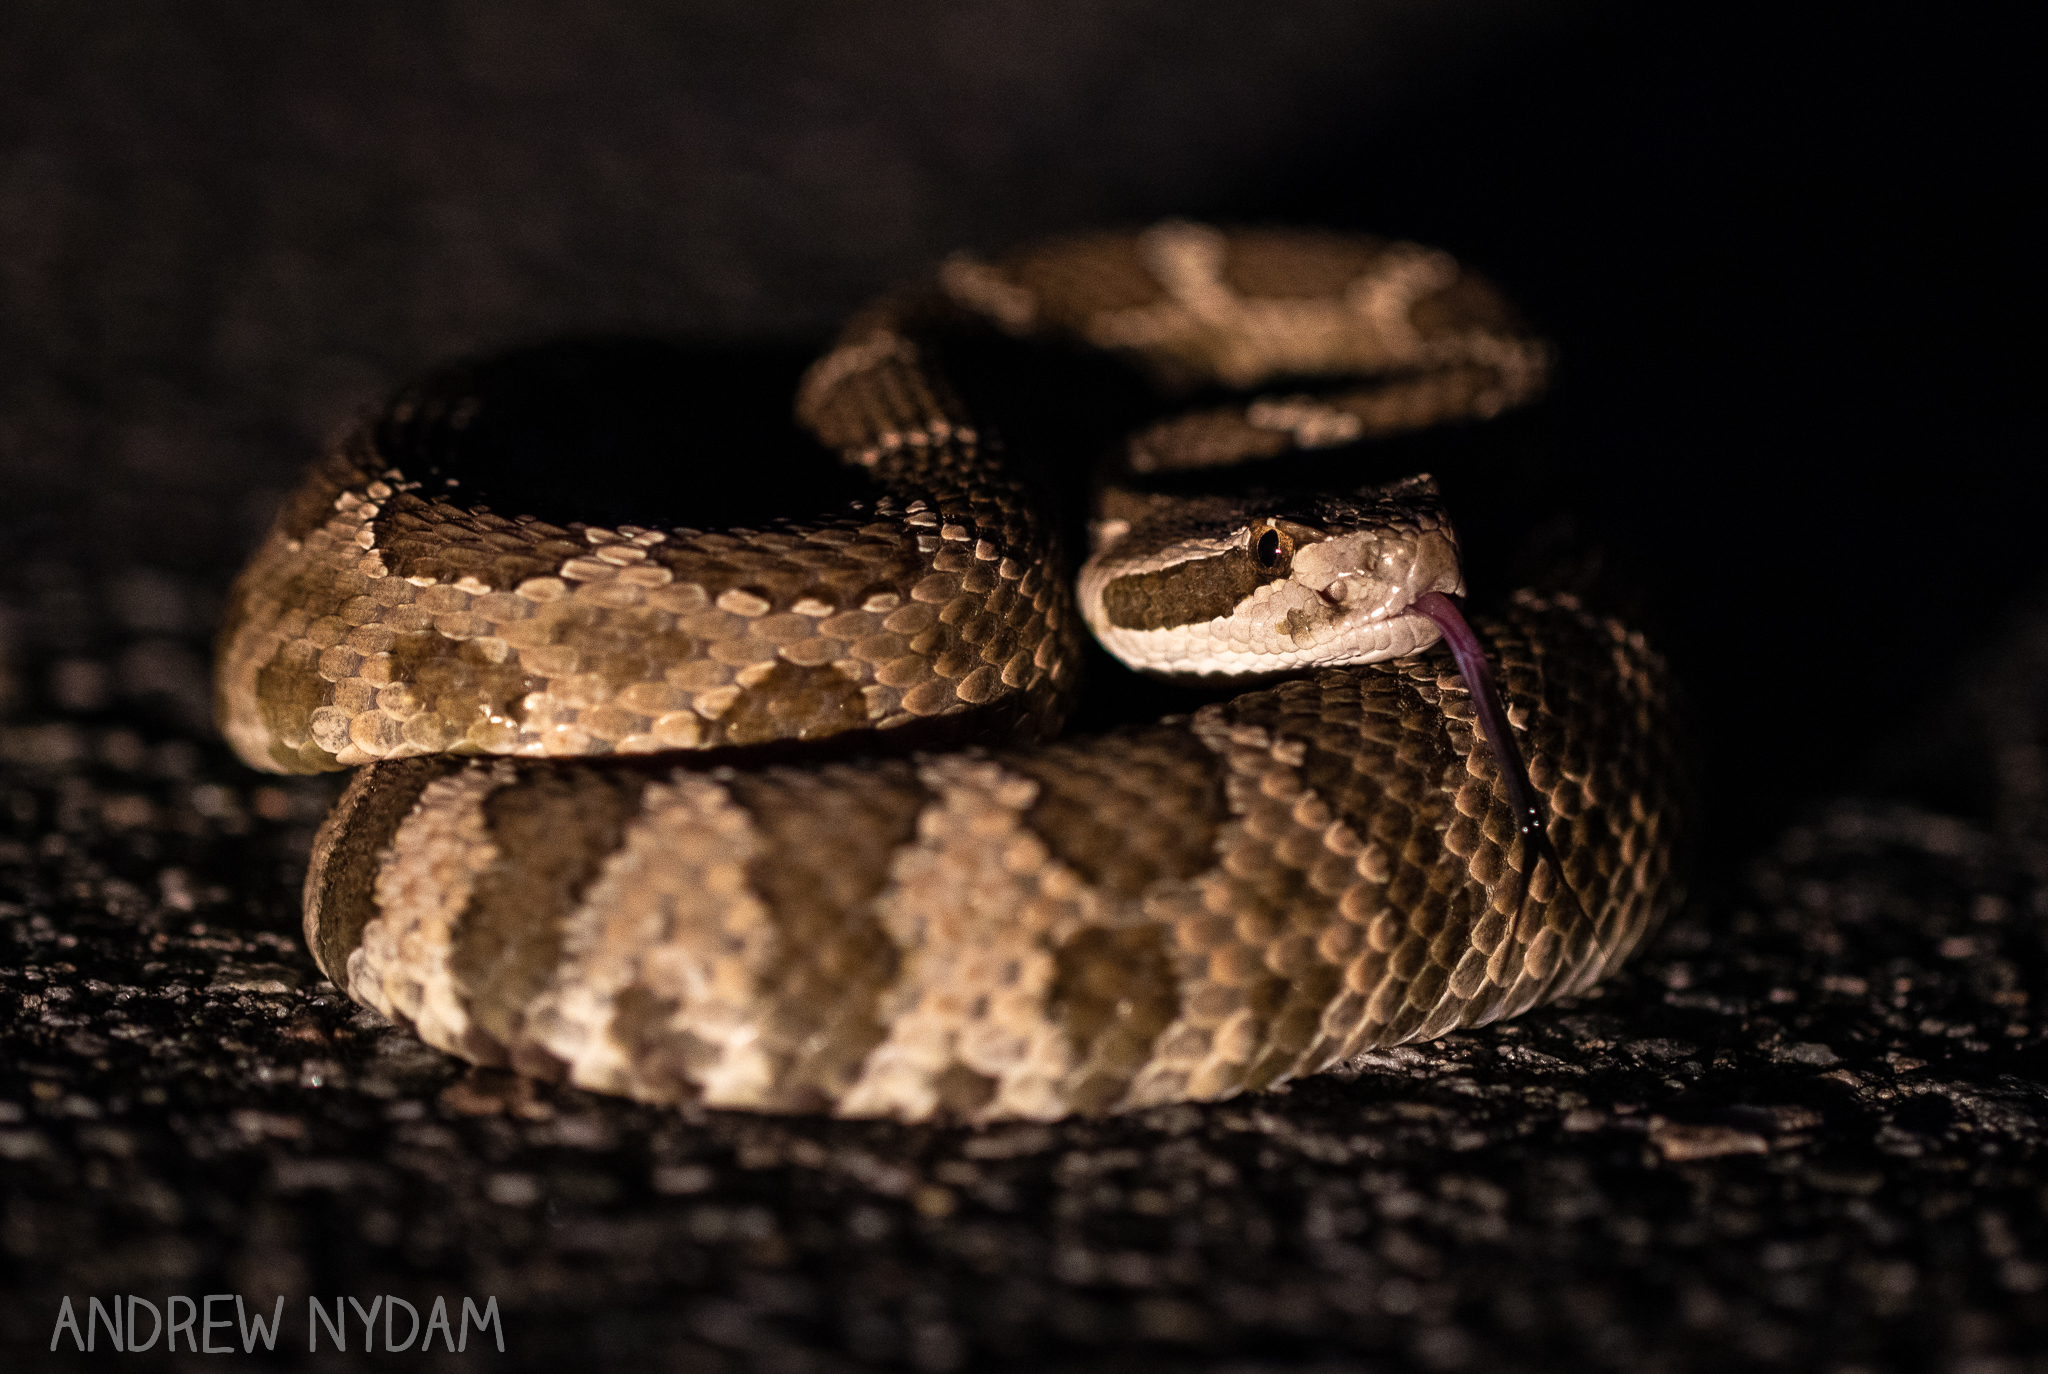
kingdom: Animalia
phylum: Chordata
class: Squamata
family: Viperidae
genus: Crotalus
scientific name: Crotalus oreganus
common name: Abyssus
